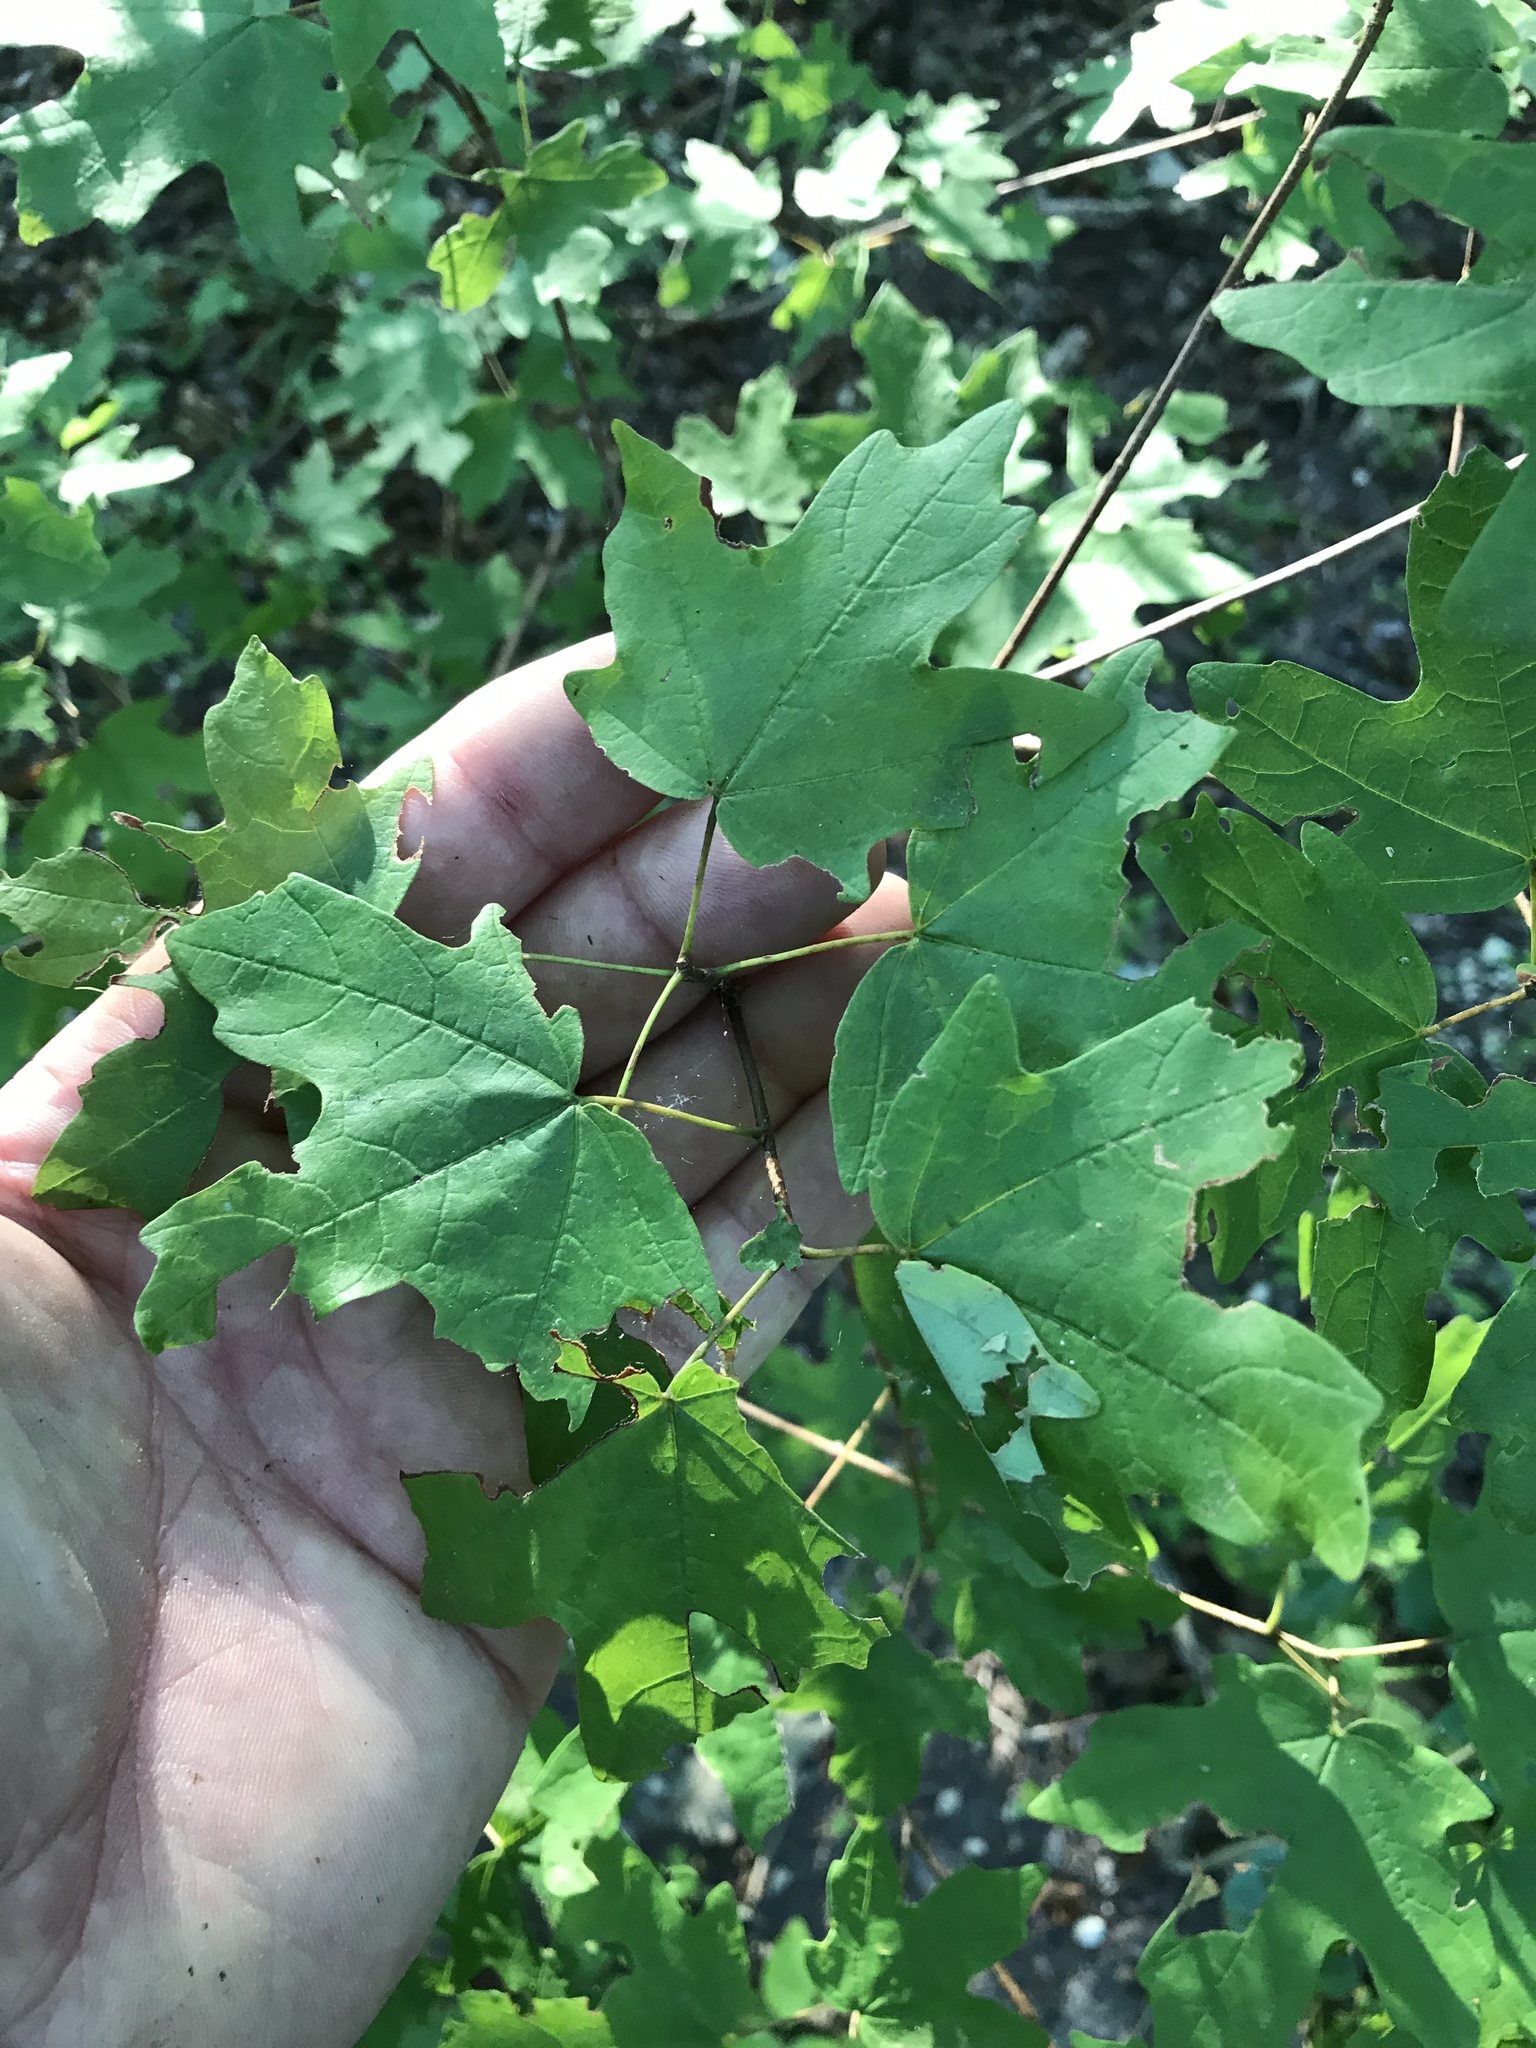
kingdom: Plantae
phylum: Tracheophyta
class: Magnoliopsida
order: Sapindales
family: Sapindaceae
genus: Acer
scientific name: Acer grandidentatum
